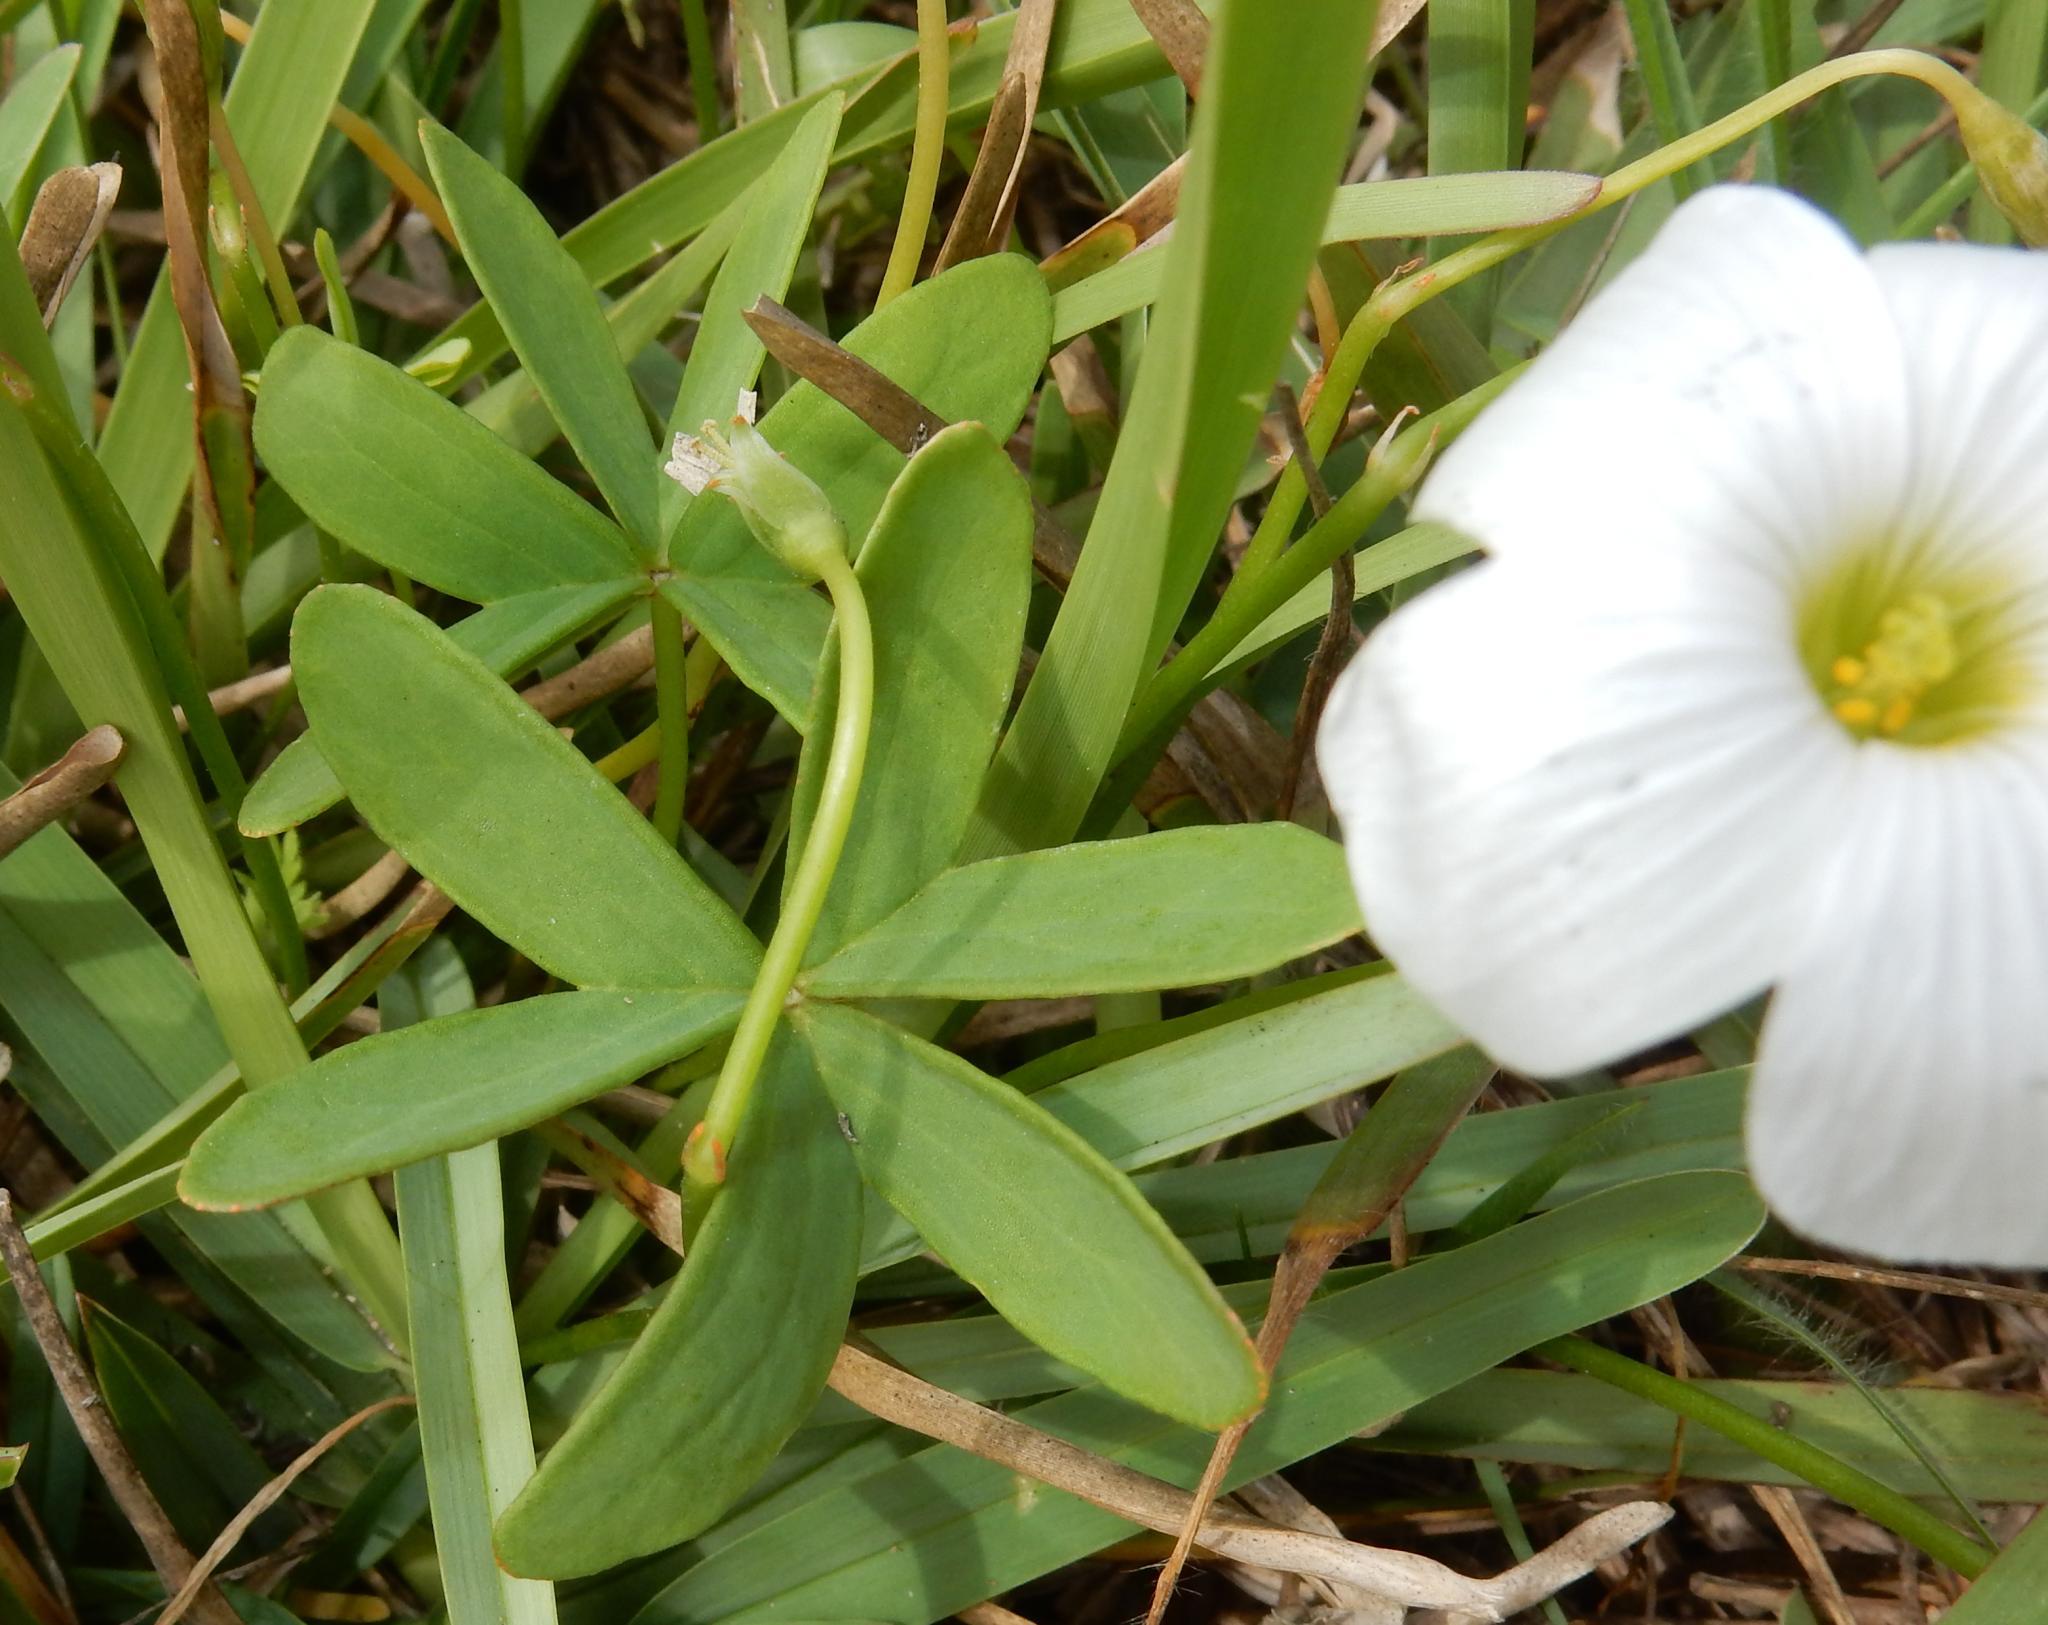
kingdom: Plantae
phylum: Tracheophyta
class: Magnoliopsida
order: Oxalidales
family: Oxalidaceae
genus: Oxalis
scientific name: Oxalis smithiana
